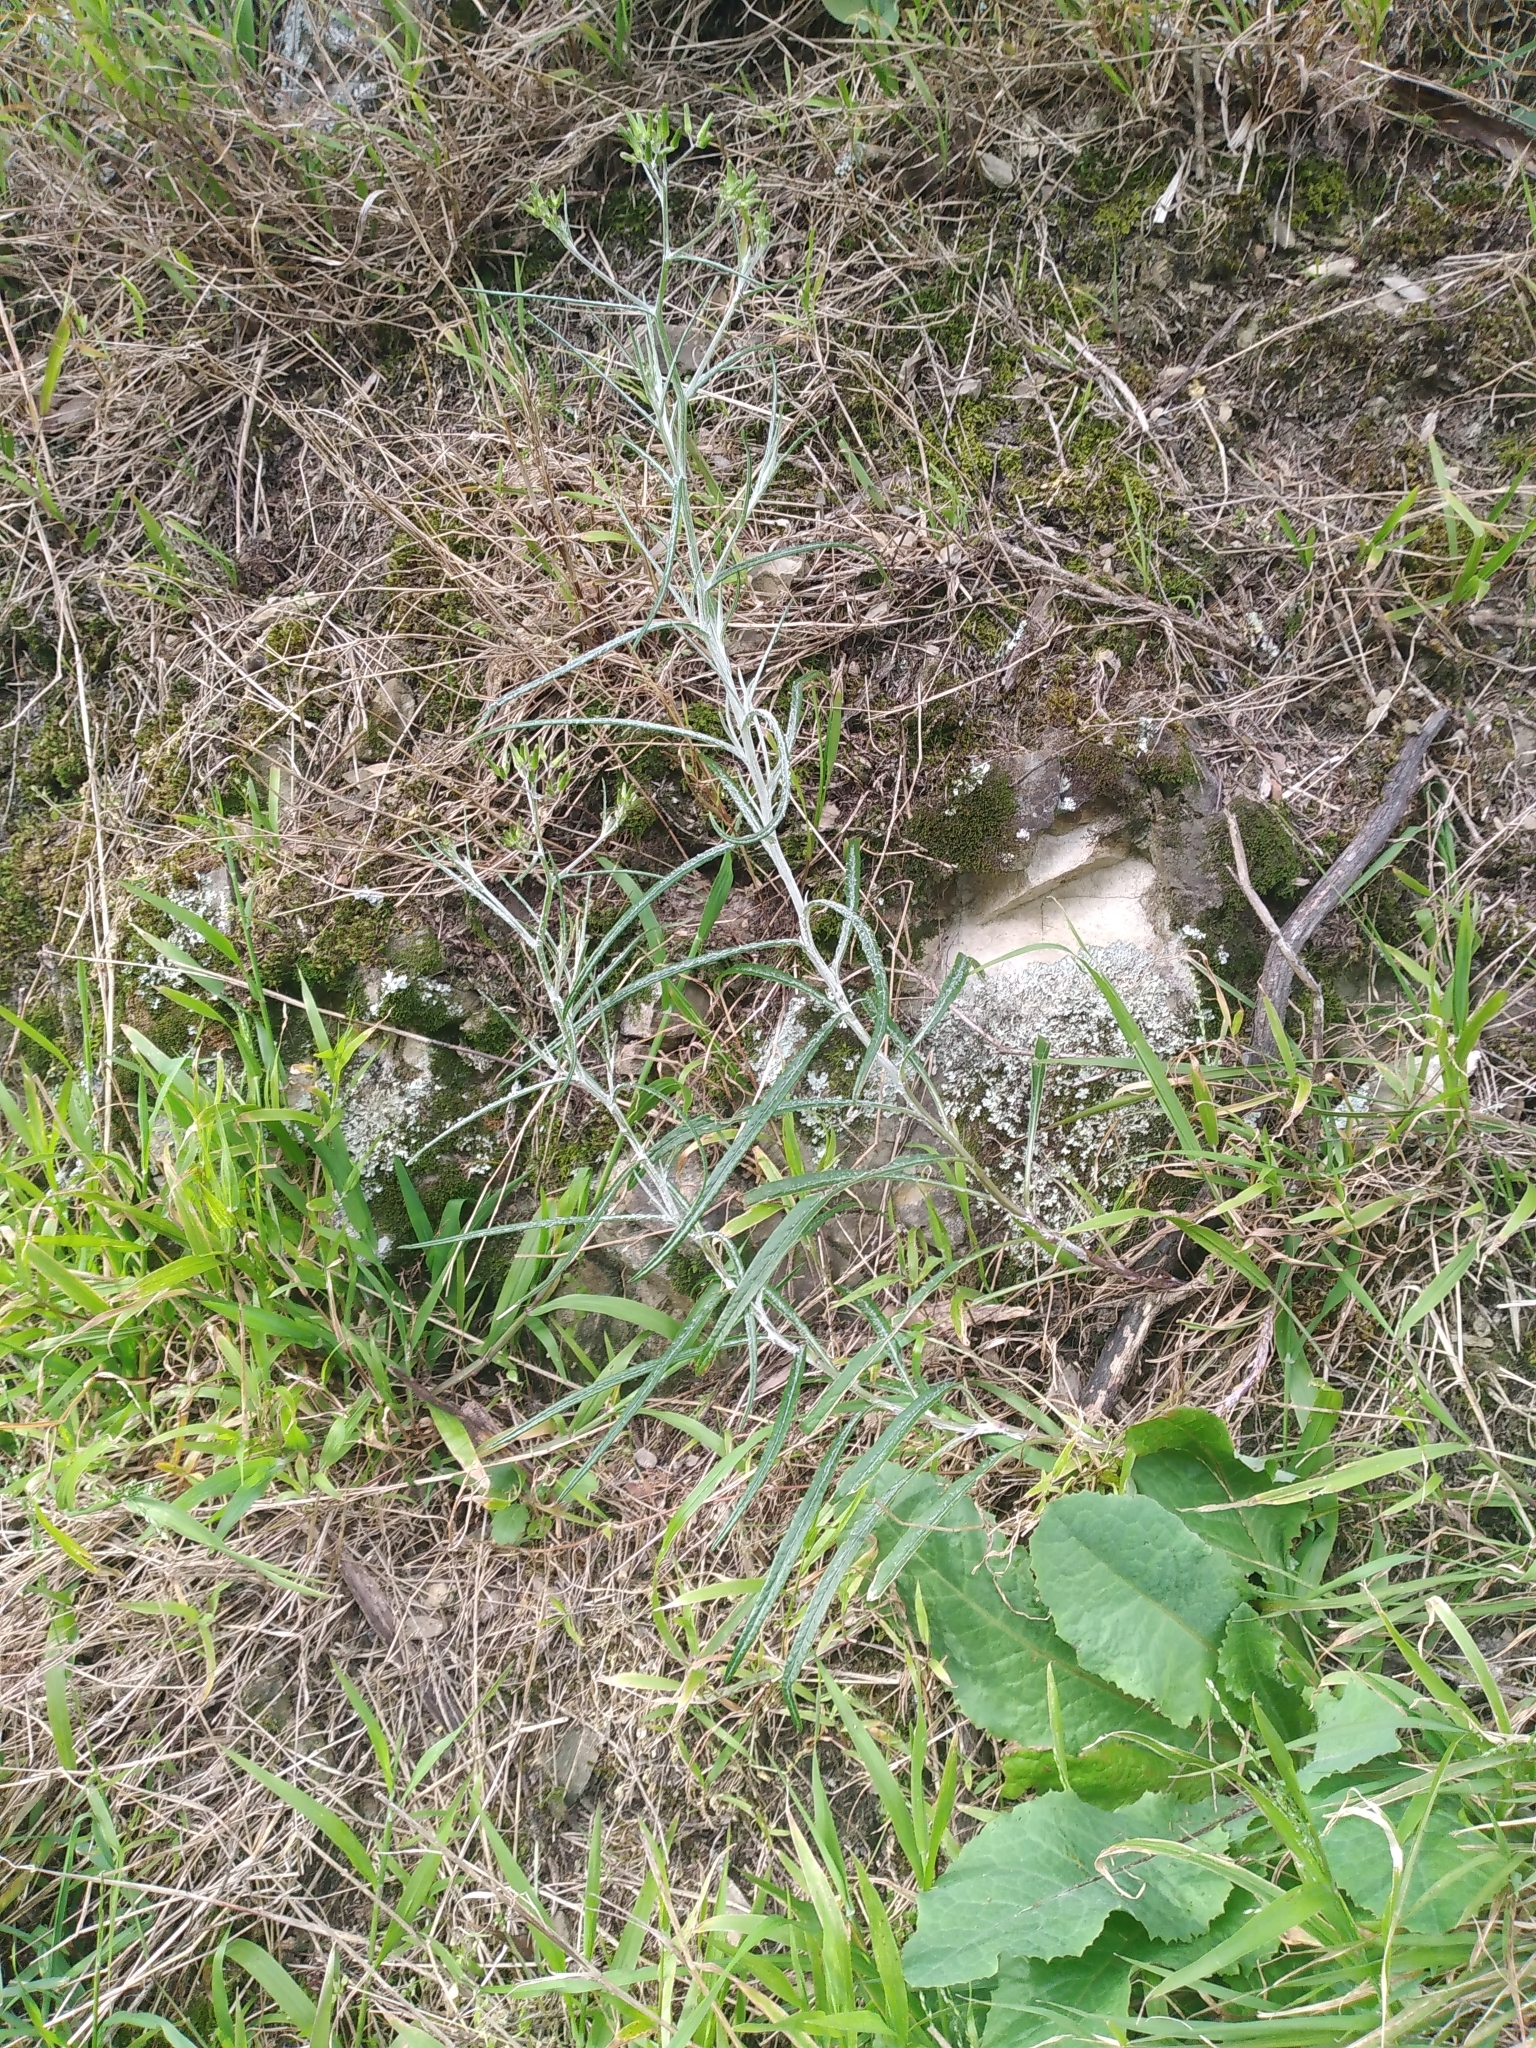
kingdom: Plantae
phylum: Tracheophyta
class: Magnoliopsida
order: Asterales
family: Asteraceae
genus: Senecio
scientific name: Senecio quadridentatus
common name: Cotton fireweed
